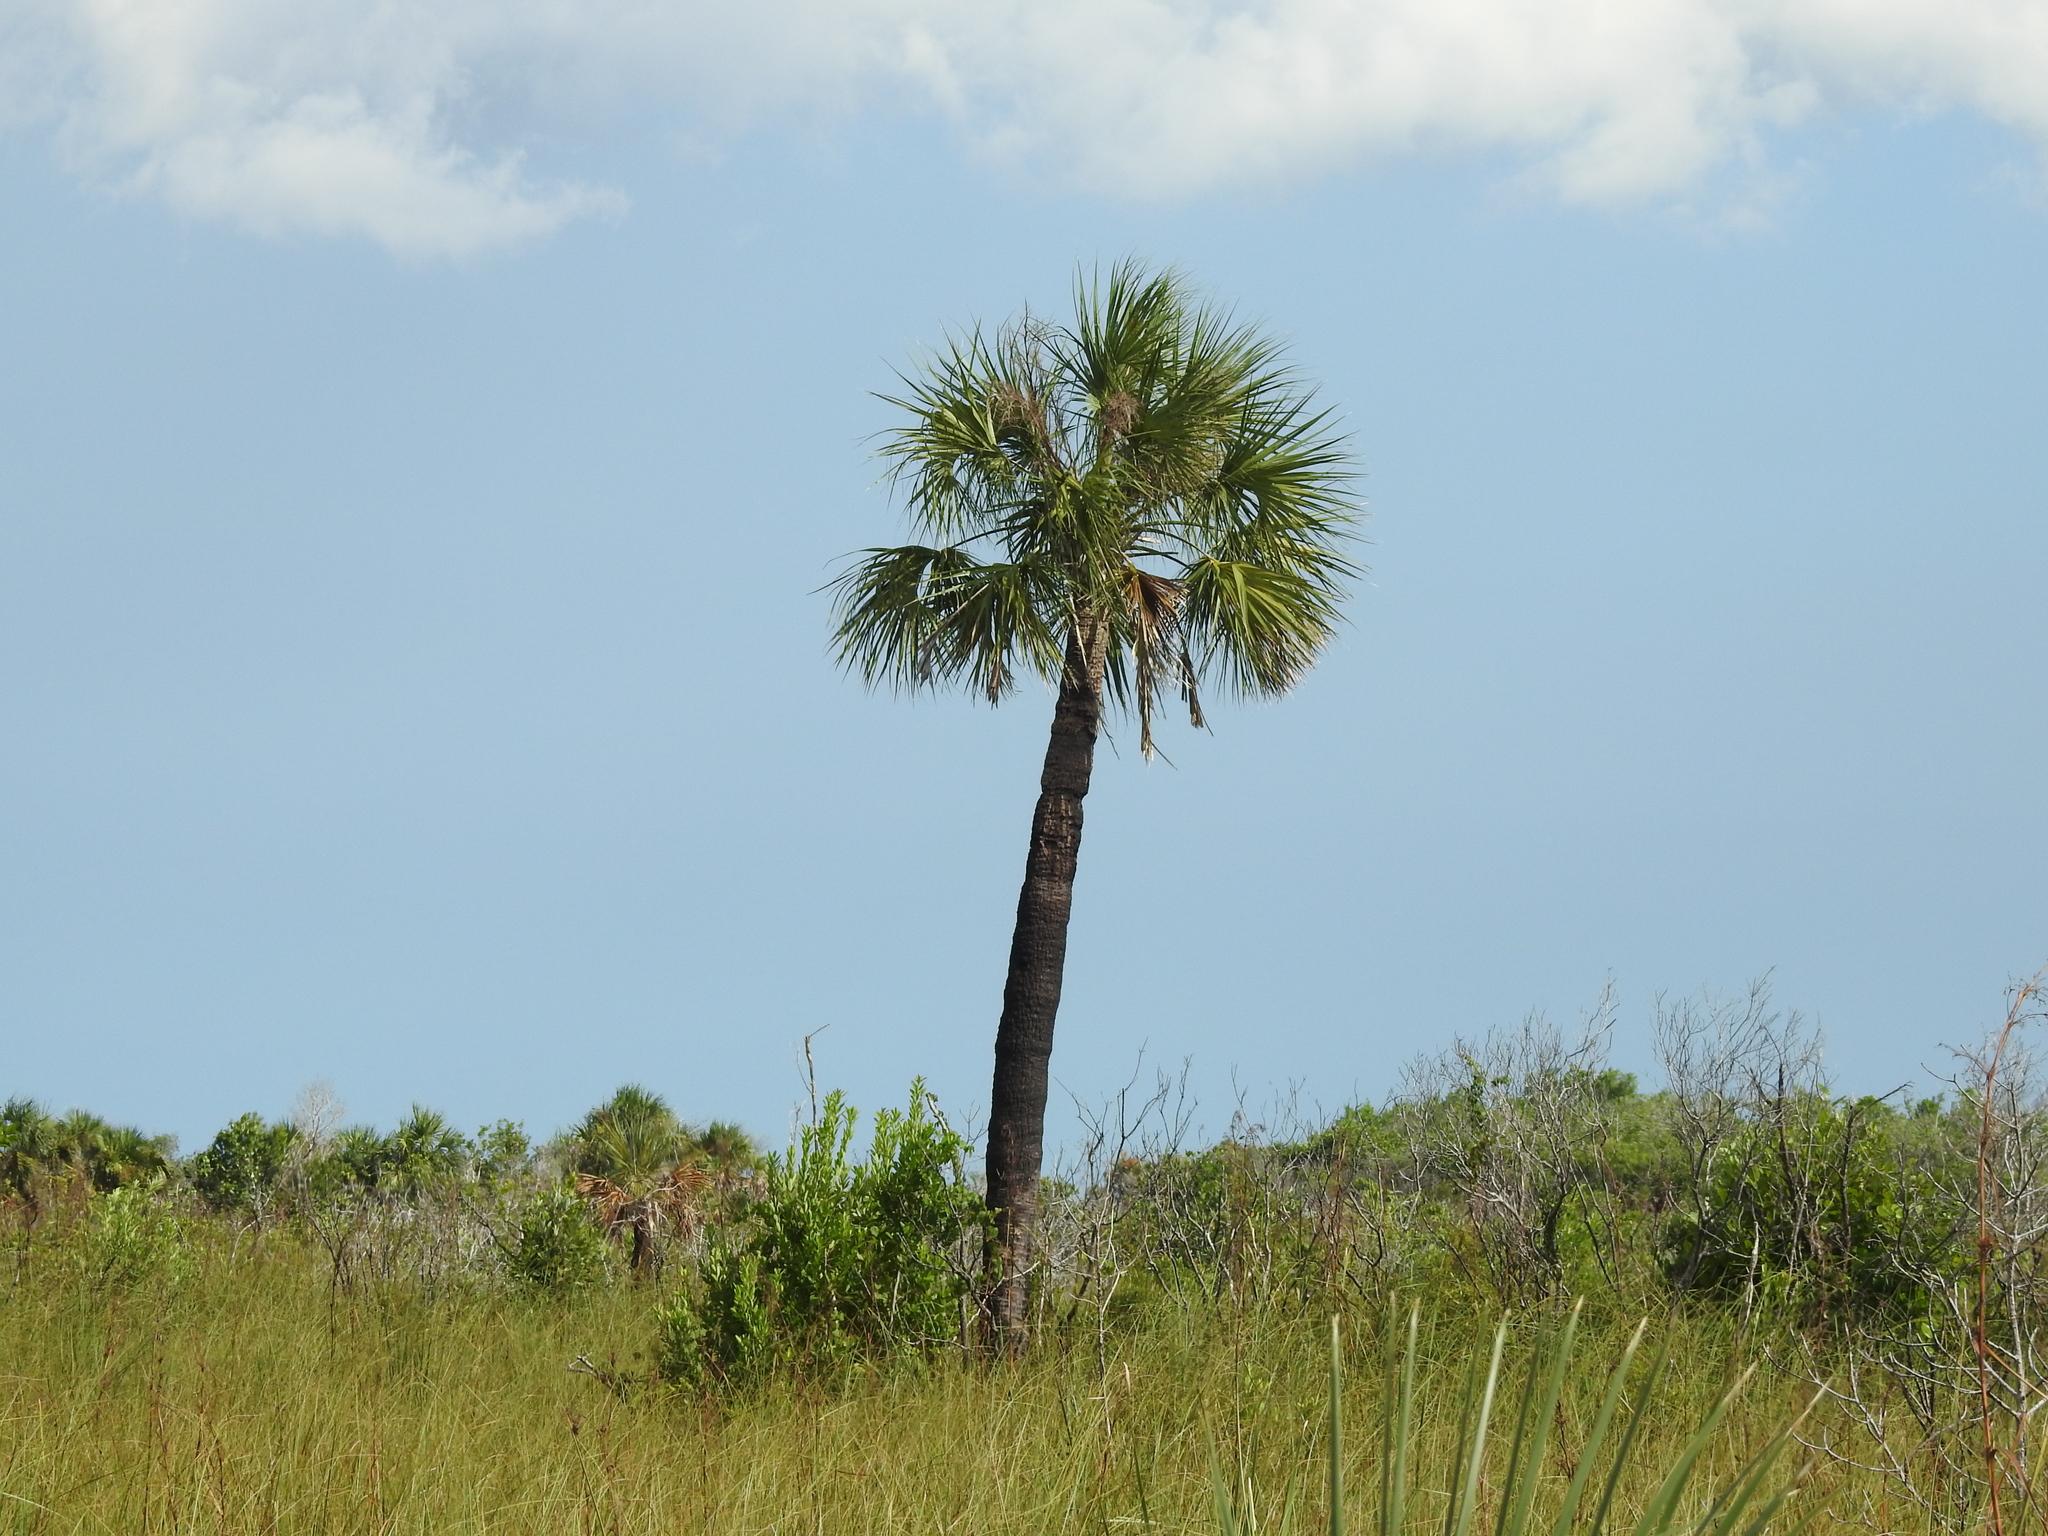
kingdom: Plantae
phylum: Tracheophyta
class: Liliopsida
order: Arecales
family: Arecaceae
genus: Sabal
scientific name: Sabal palmetto
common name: Blue palmetto
